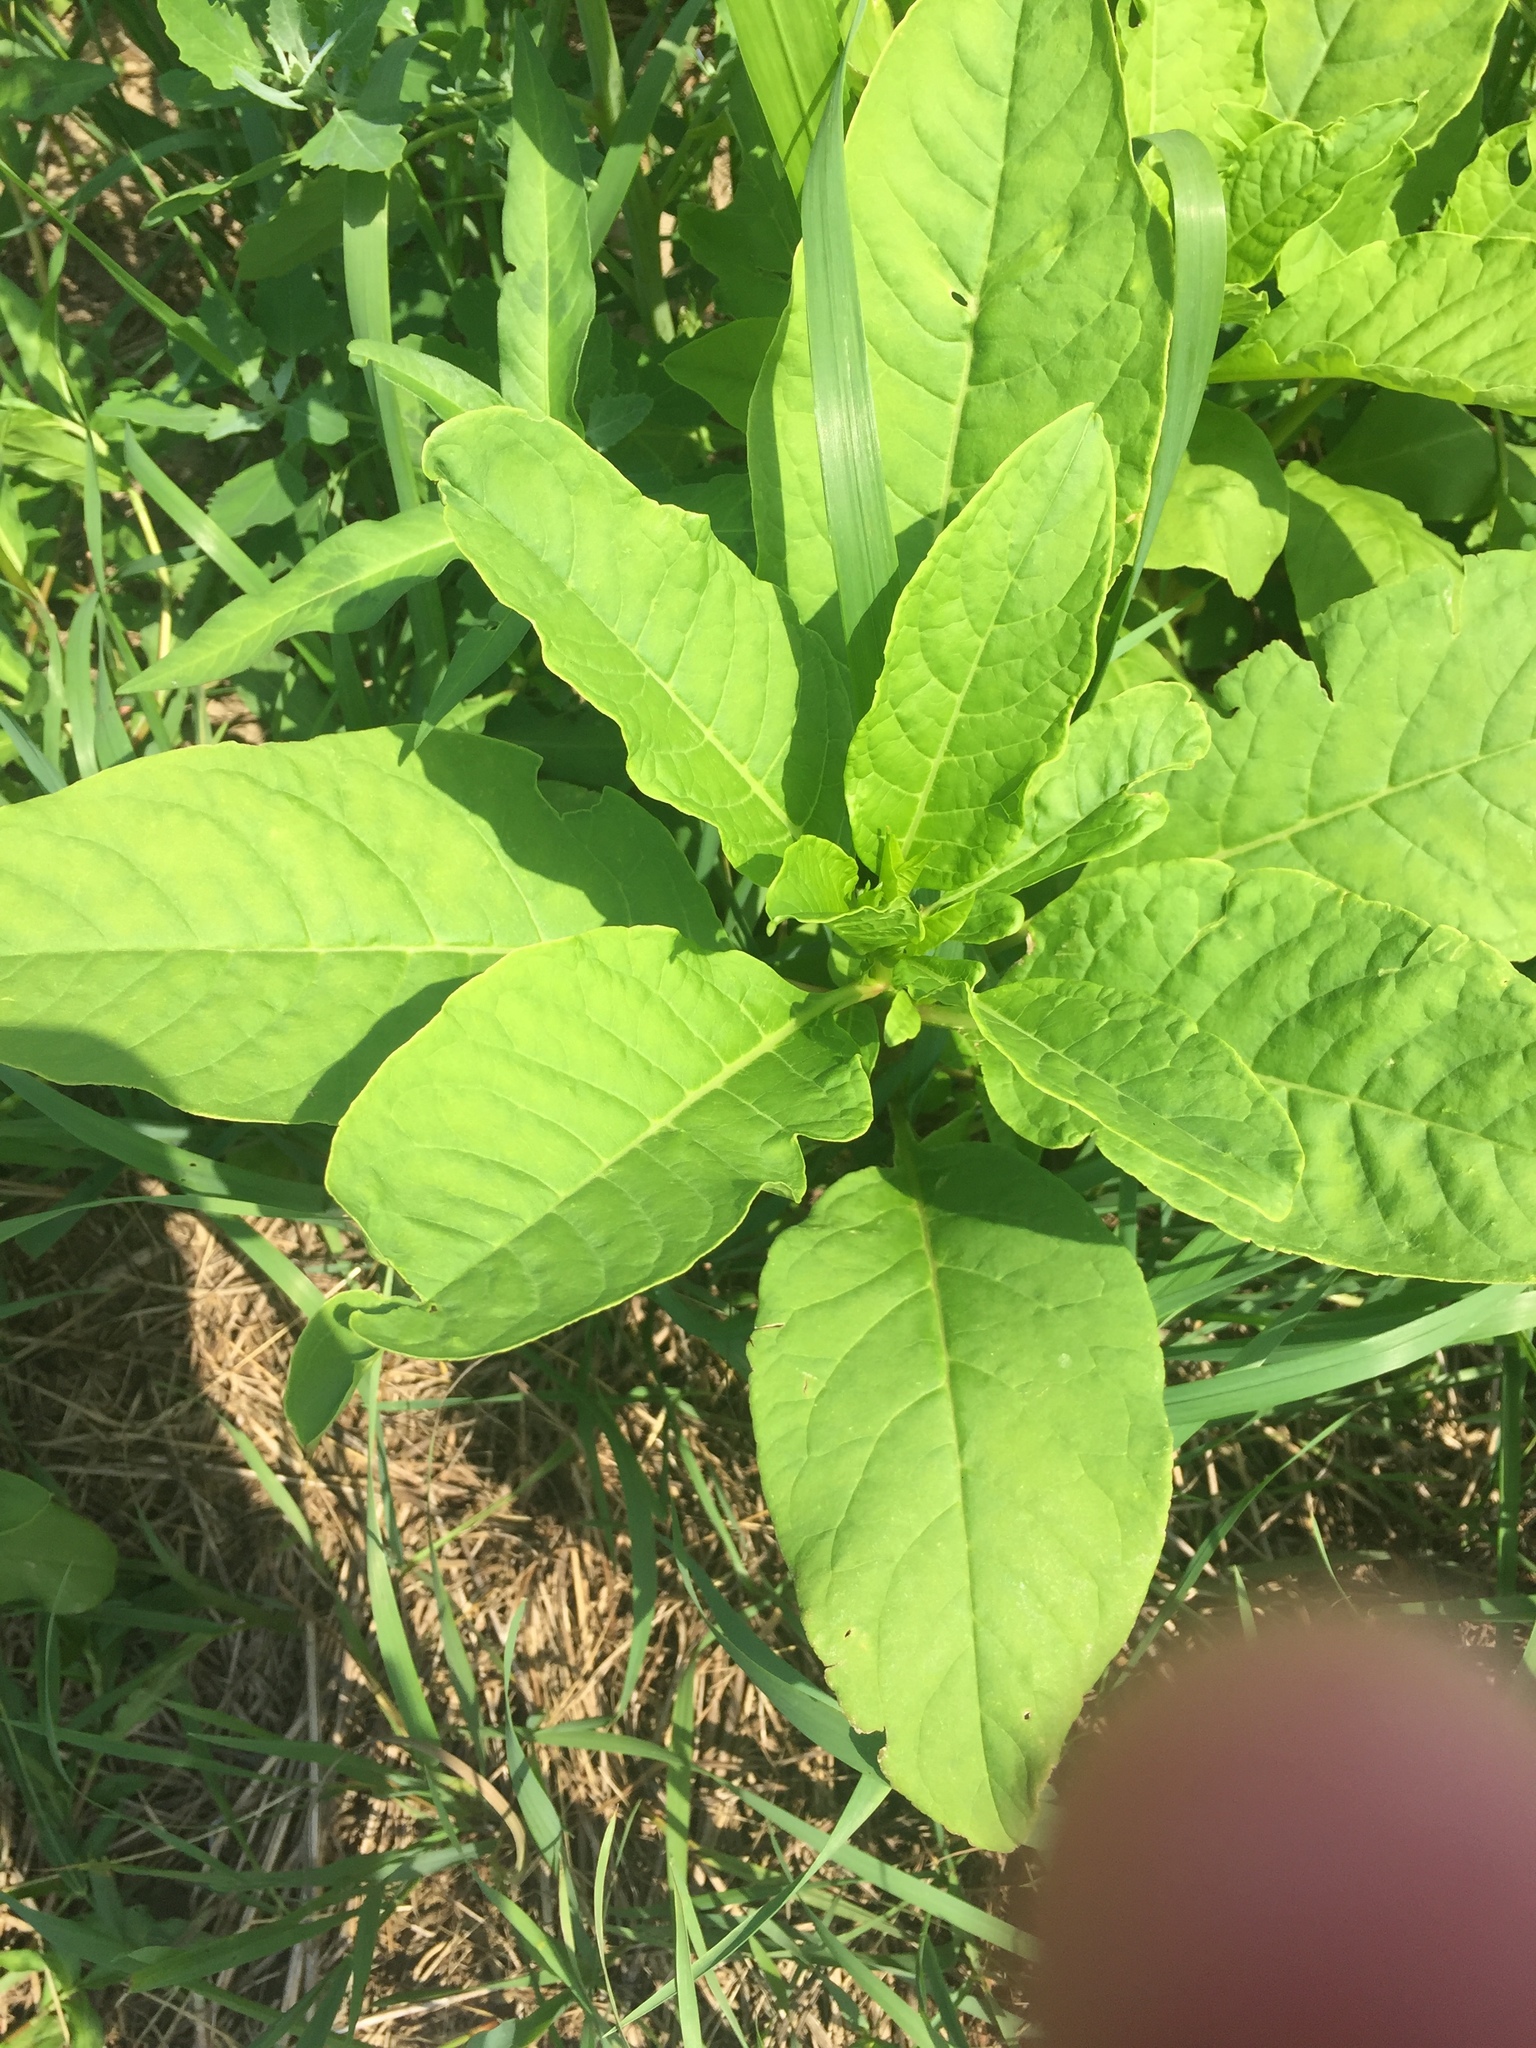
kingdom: Plantae
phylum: Tracheophyta
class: Magnoliopsida
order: Caryophyllales
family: Phytolaccaceae
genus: Phytolacca
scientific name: Phytolacca americana
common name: American pokeweed
